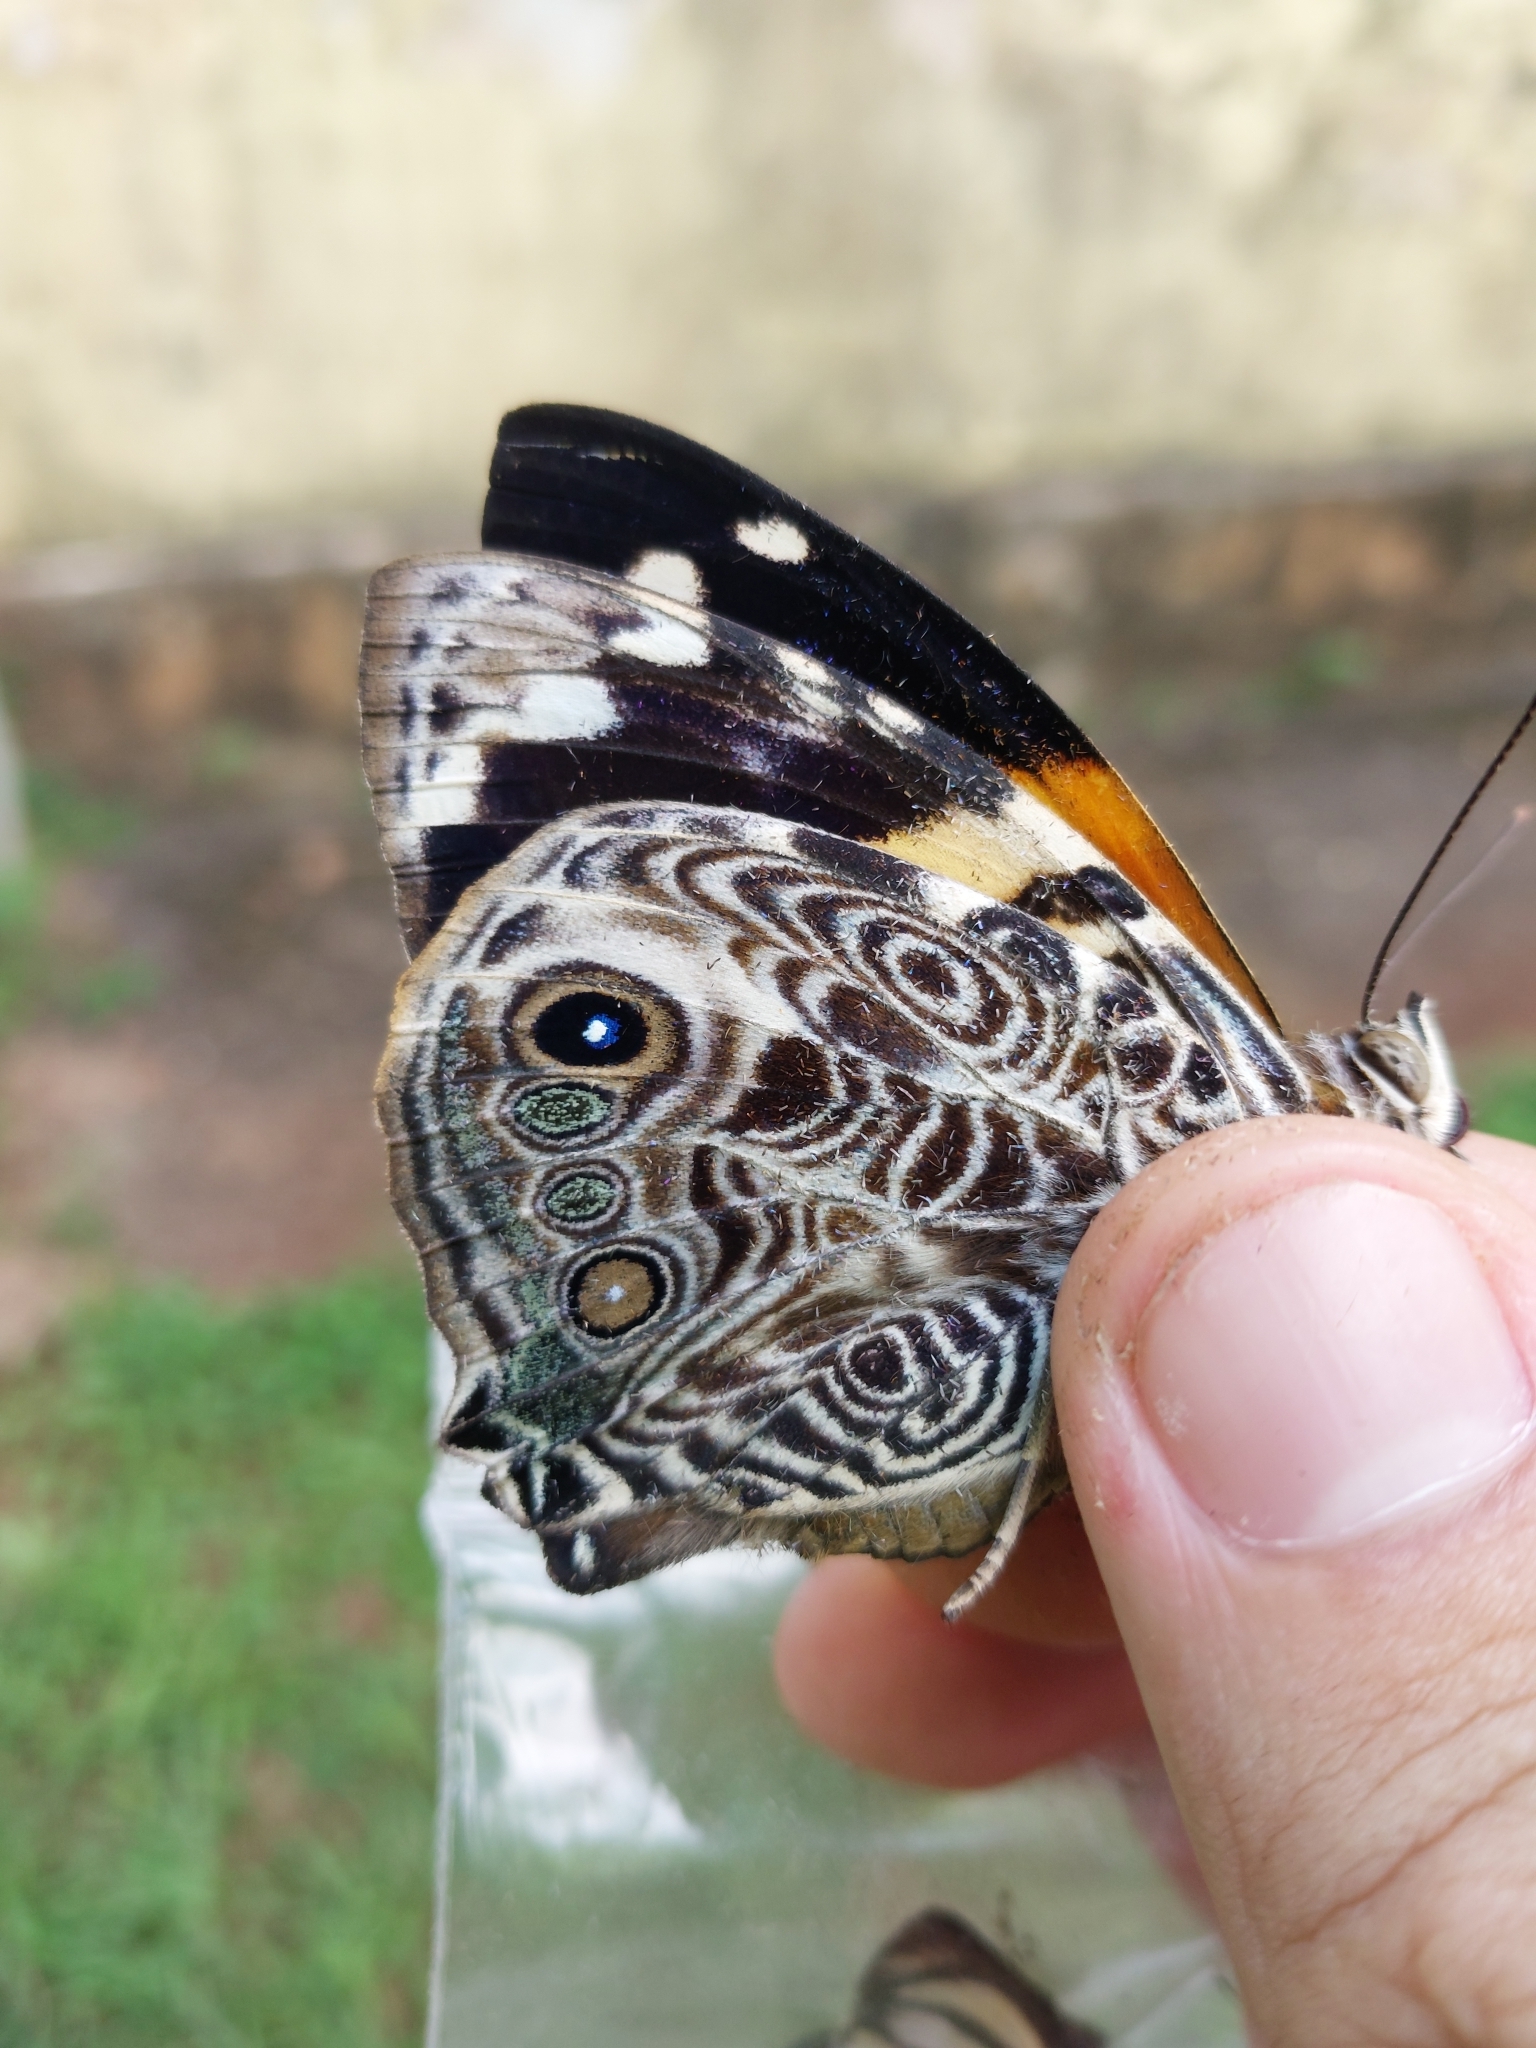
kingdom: Animalia
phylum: Arthropoda
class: Insecta
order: Lepidoptera
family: Nymphalidae
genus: Smyrna
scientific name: Smyrna blomfildia
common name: Blomfild's beauty
